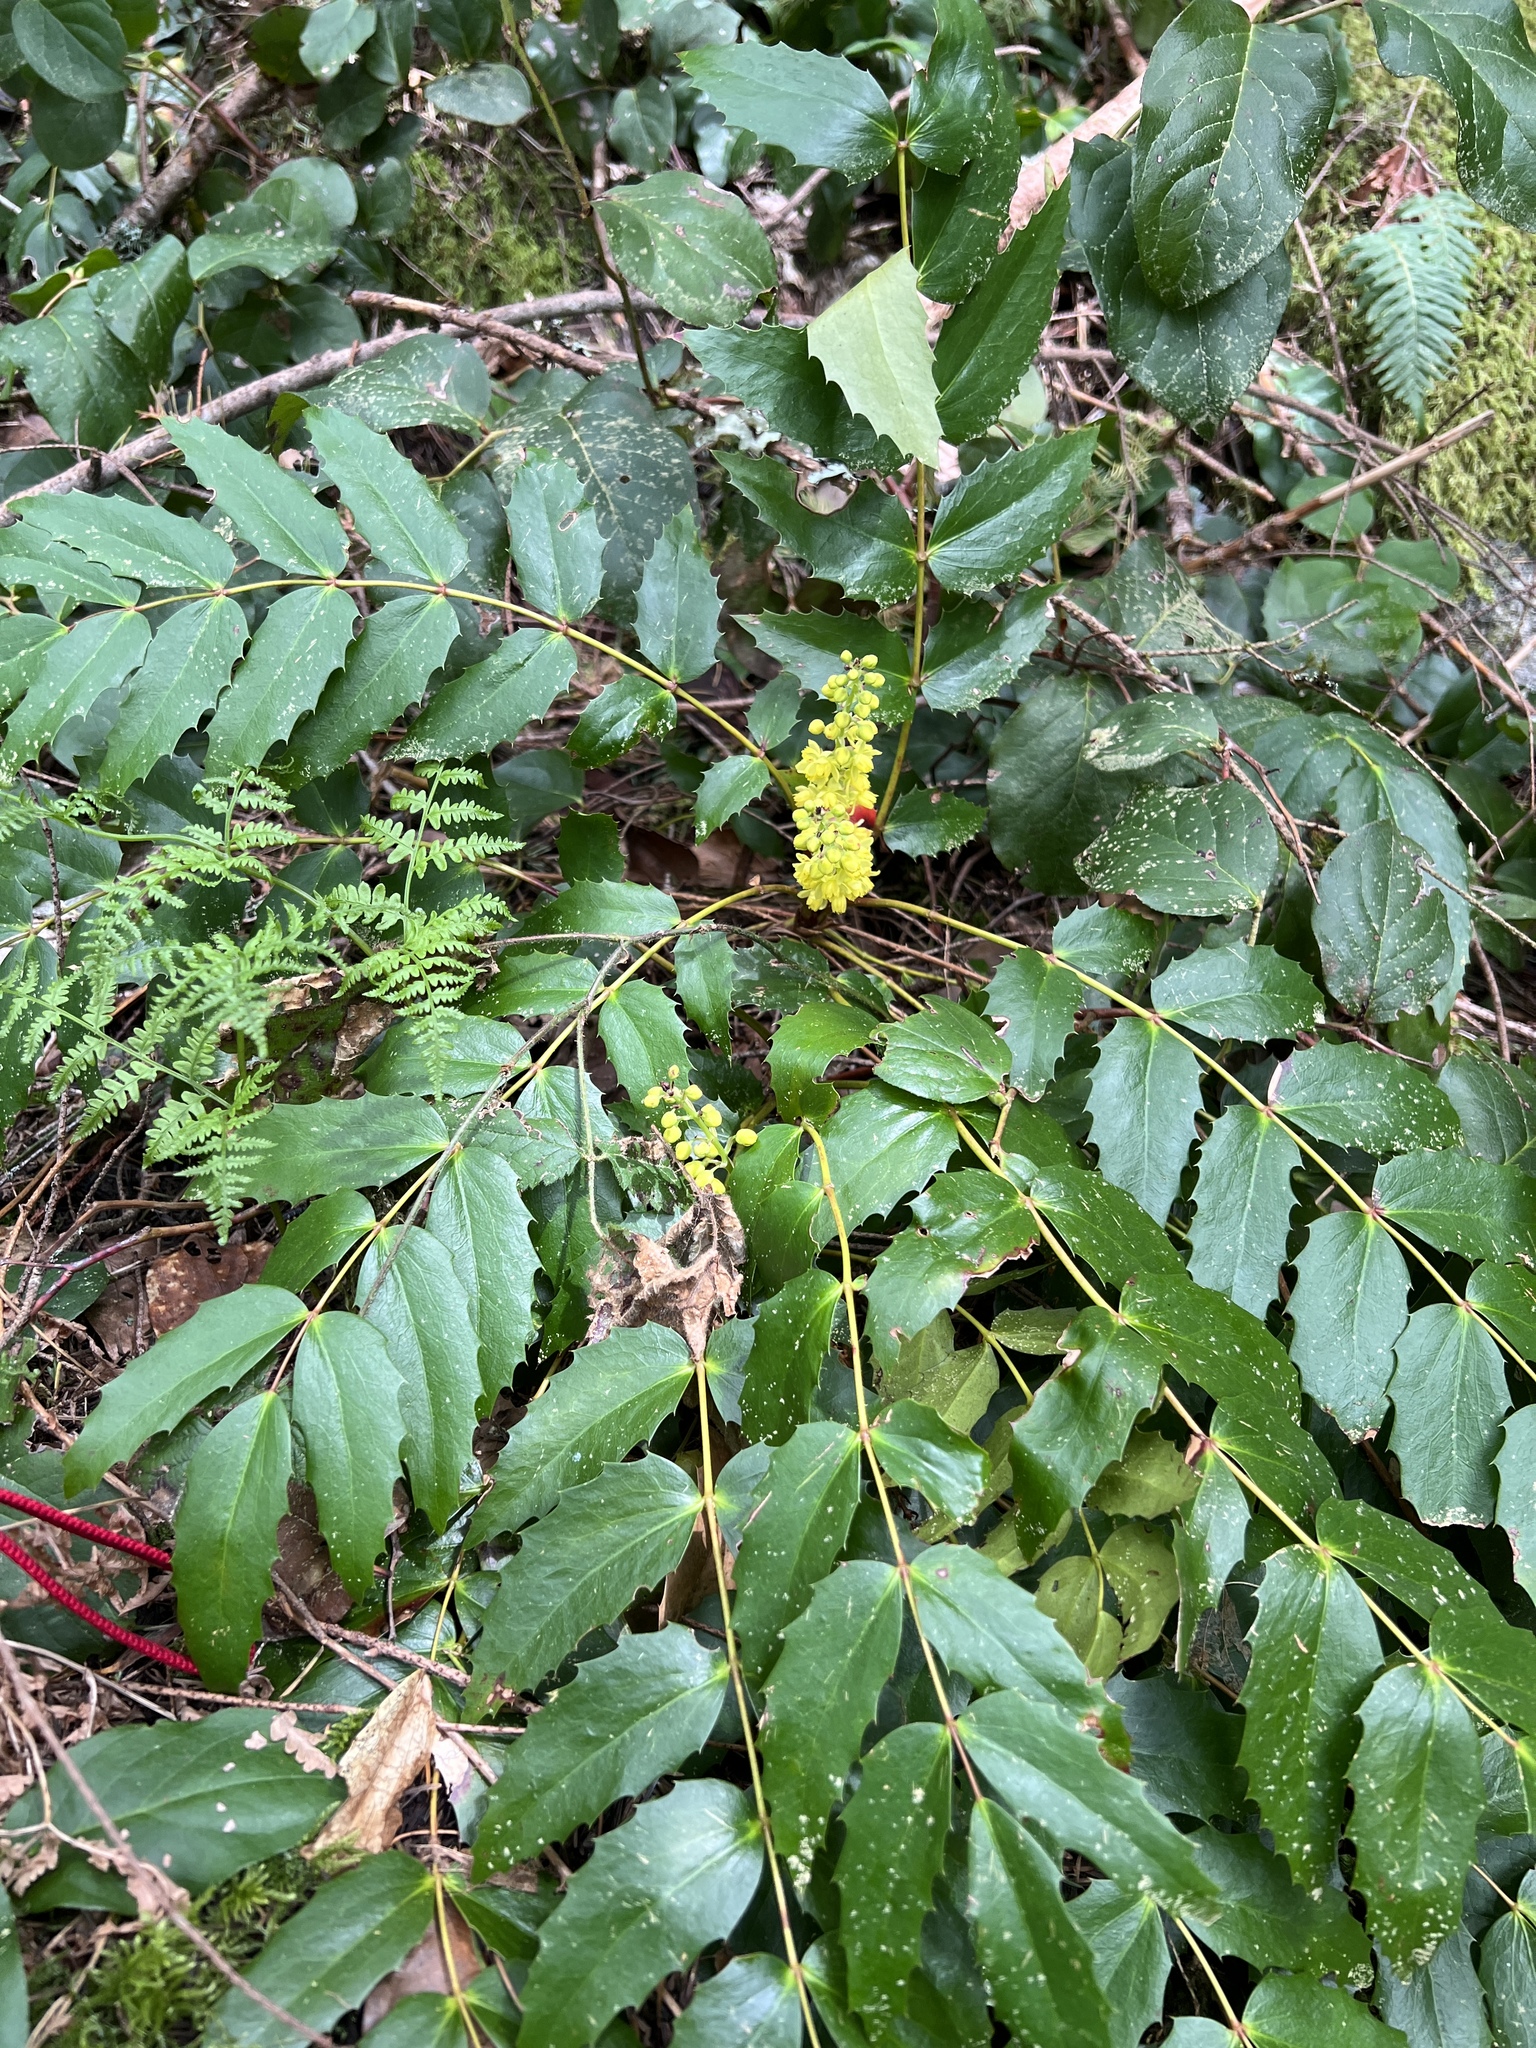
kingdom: Plantae
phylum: Tracheophyta
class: Magnoliopsida
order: Ranunculales
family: Berberidaceae
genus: Mahonia
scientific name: Mahonia nervosa
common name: Cascade oregon-grape
